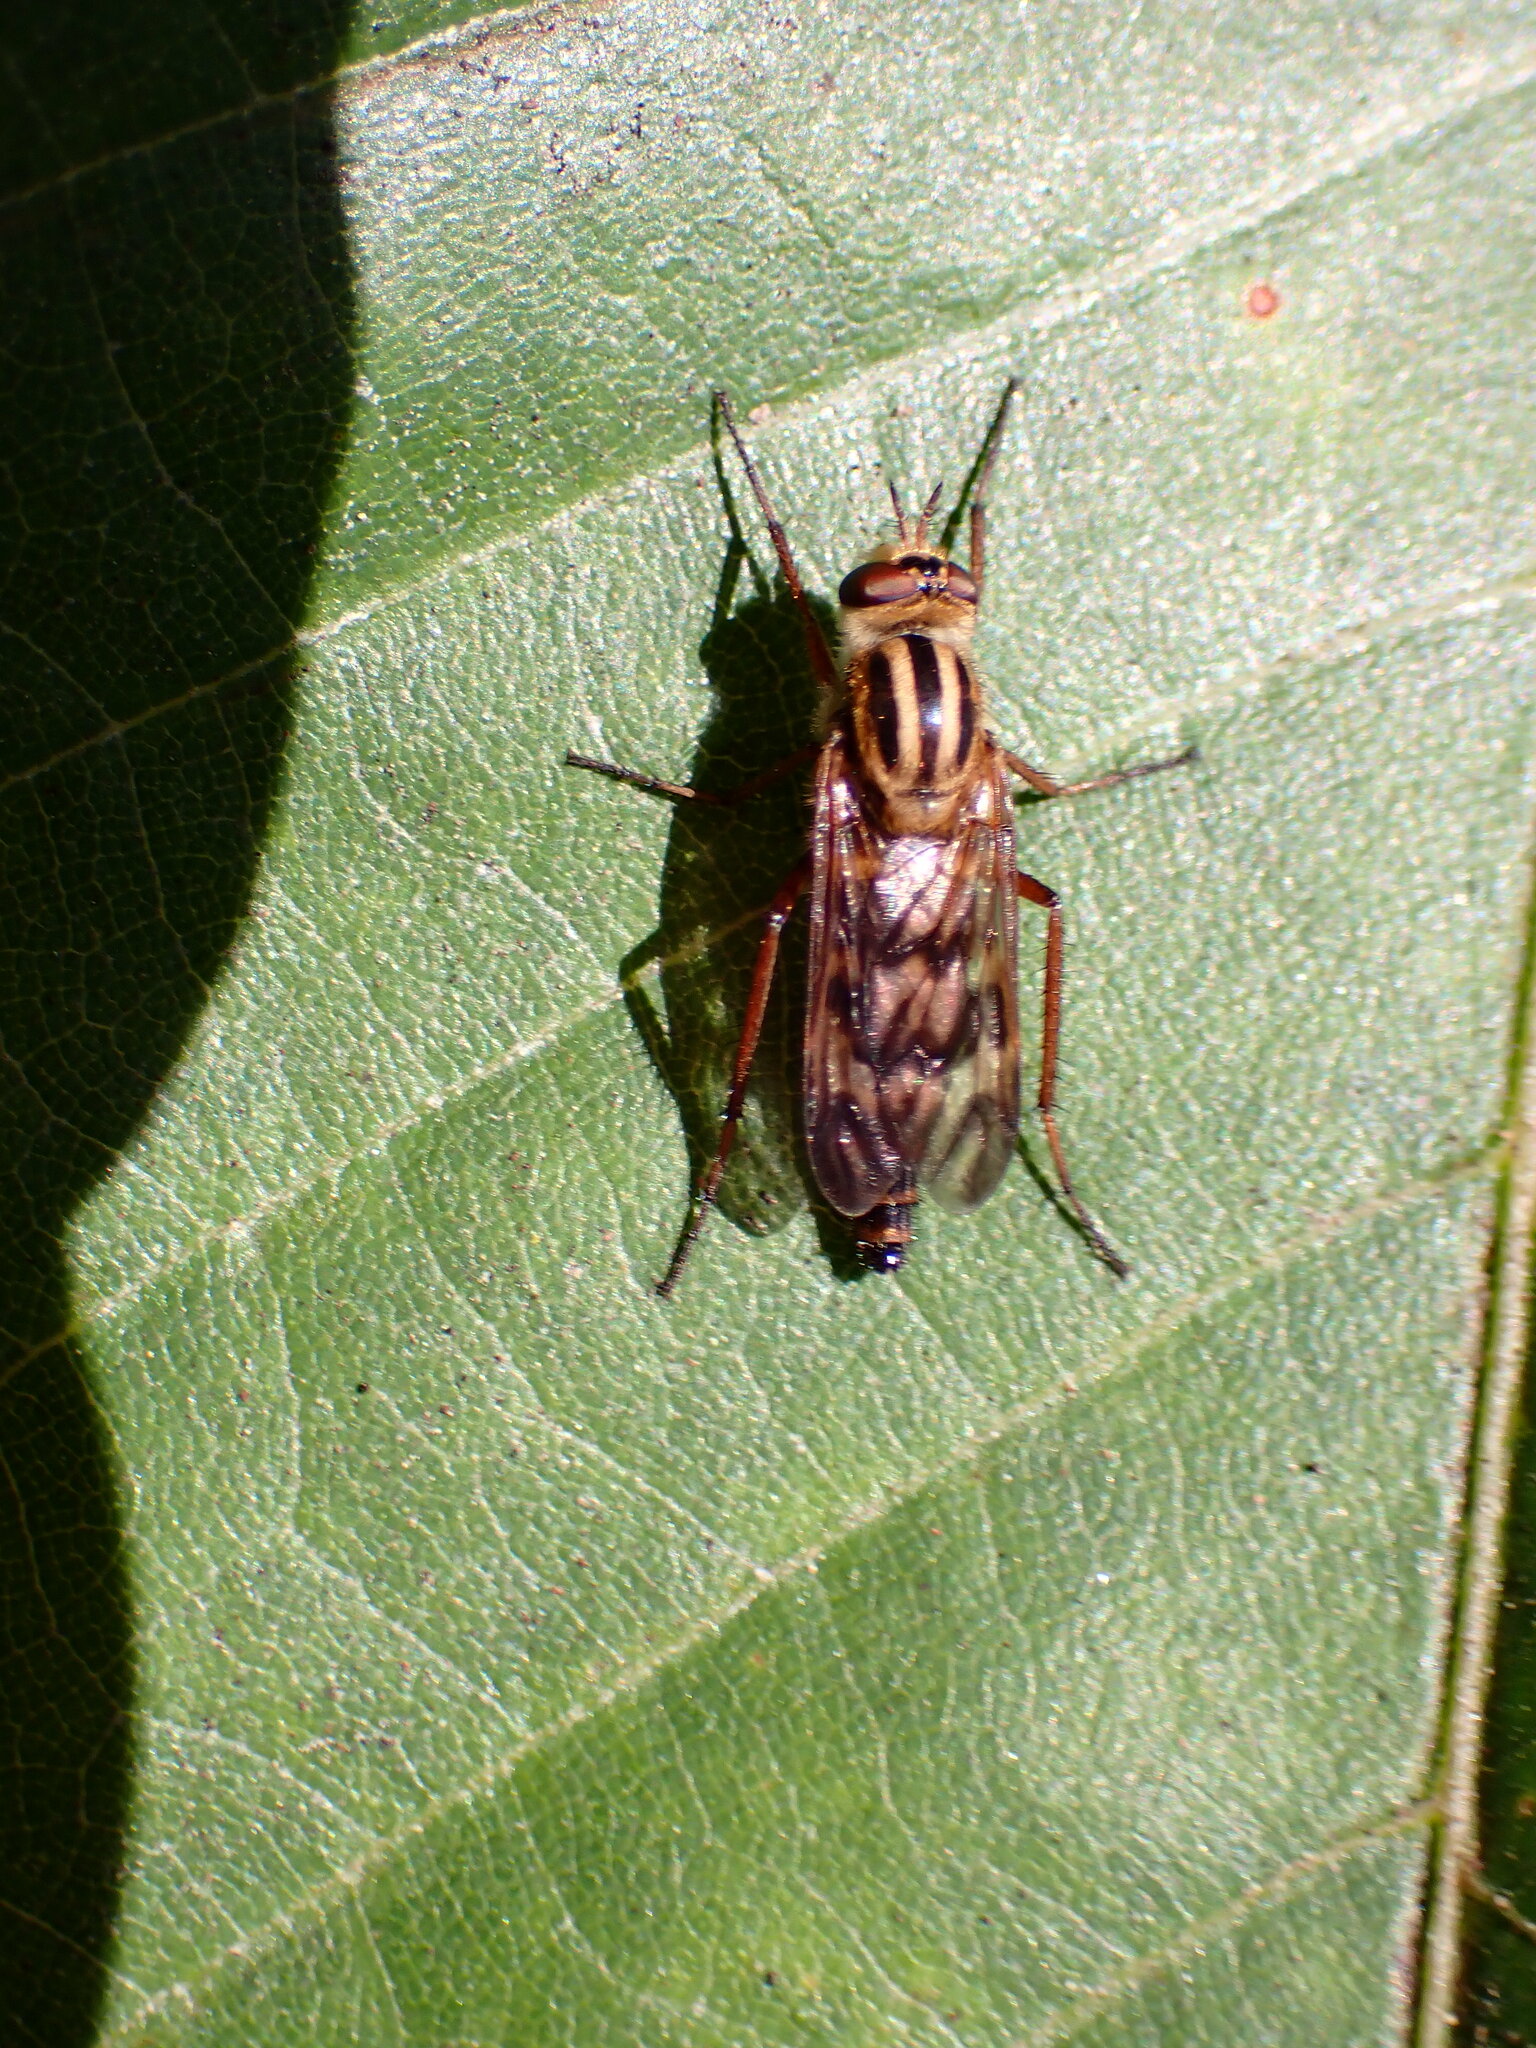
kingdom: Animalia
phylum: Arthropoda
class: Insecta
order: Diptera
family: Therevidae
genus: Thereva
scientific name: Thereva fucata
